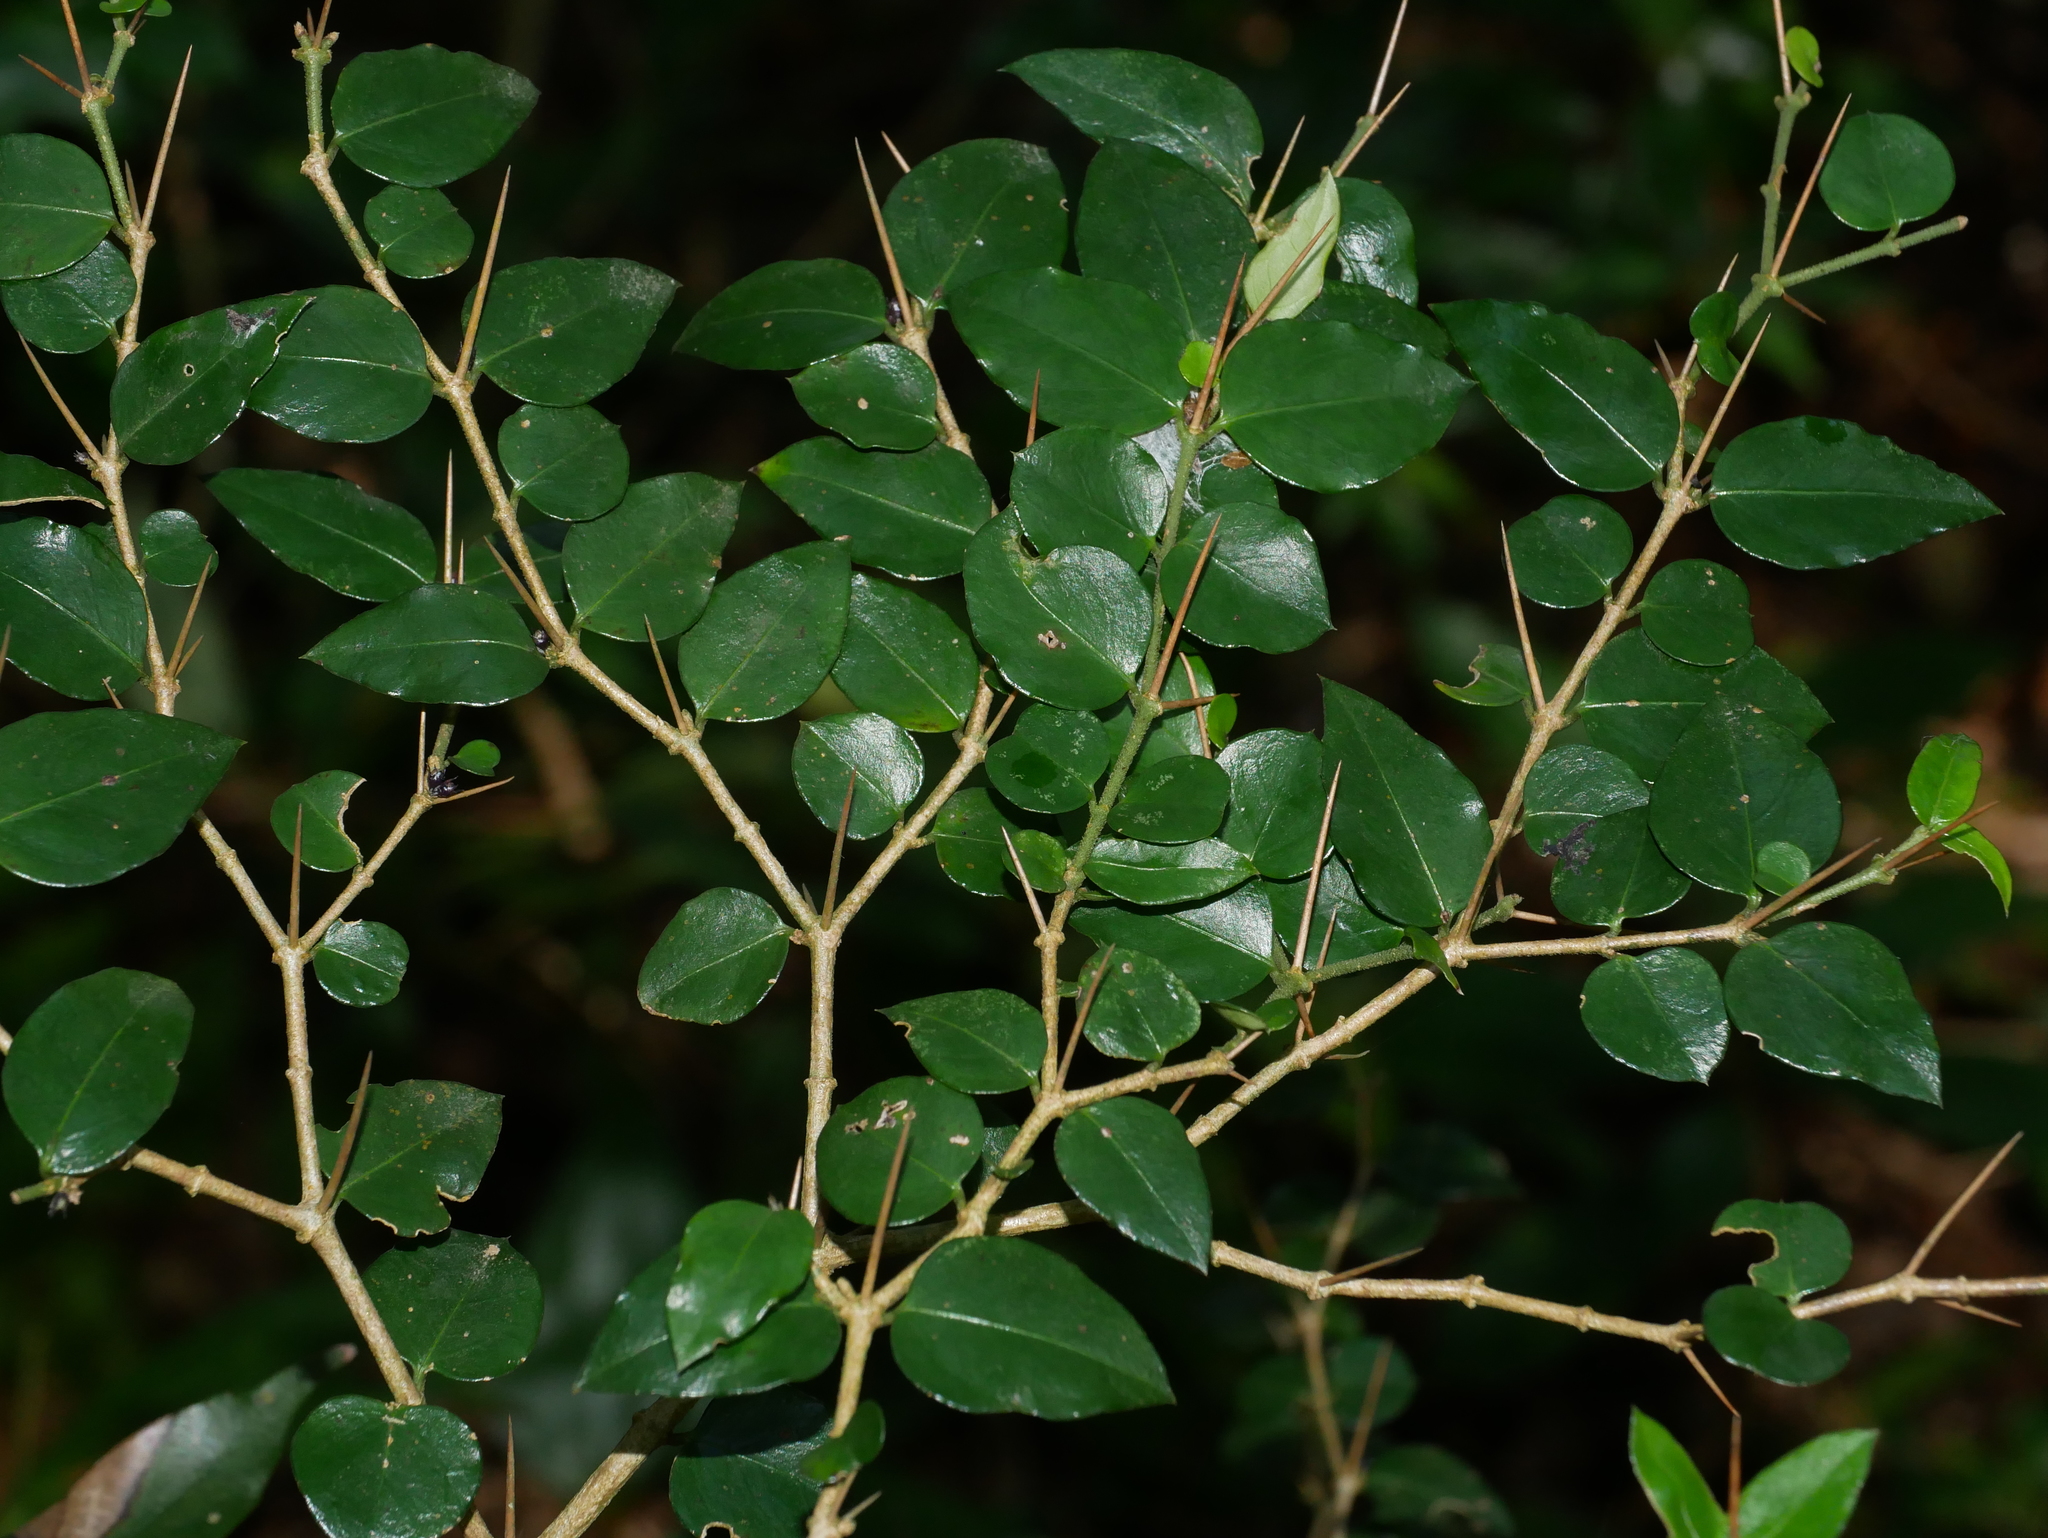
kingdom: Plantae
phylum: Tracheophyta
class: Magnoliopsida
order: Gentianales
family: Rubiaceae
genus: Damnacanthus
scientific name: Damnacanthus indicus
